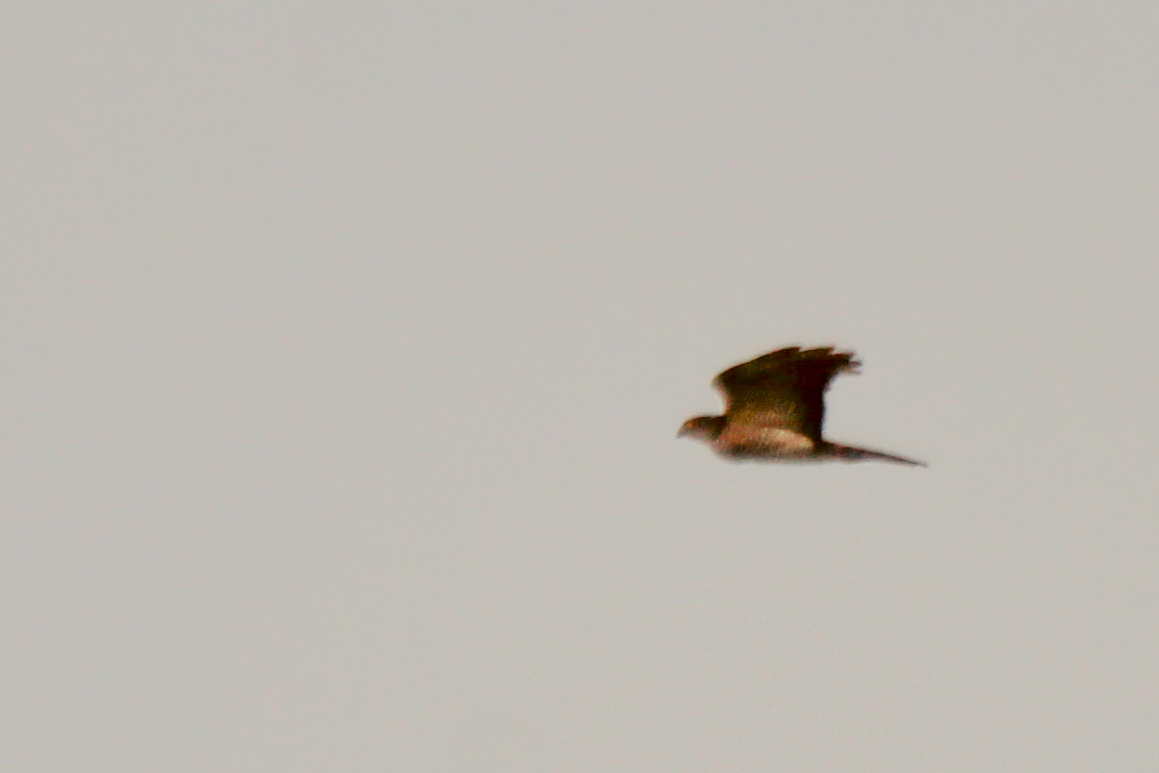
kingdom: Animalia
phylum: Chordata
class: Aves
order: Accipitriformes
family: Accipitridae
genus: Accipiter
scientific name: Accipiter gularis
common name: Japanese sparrowhawk
